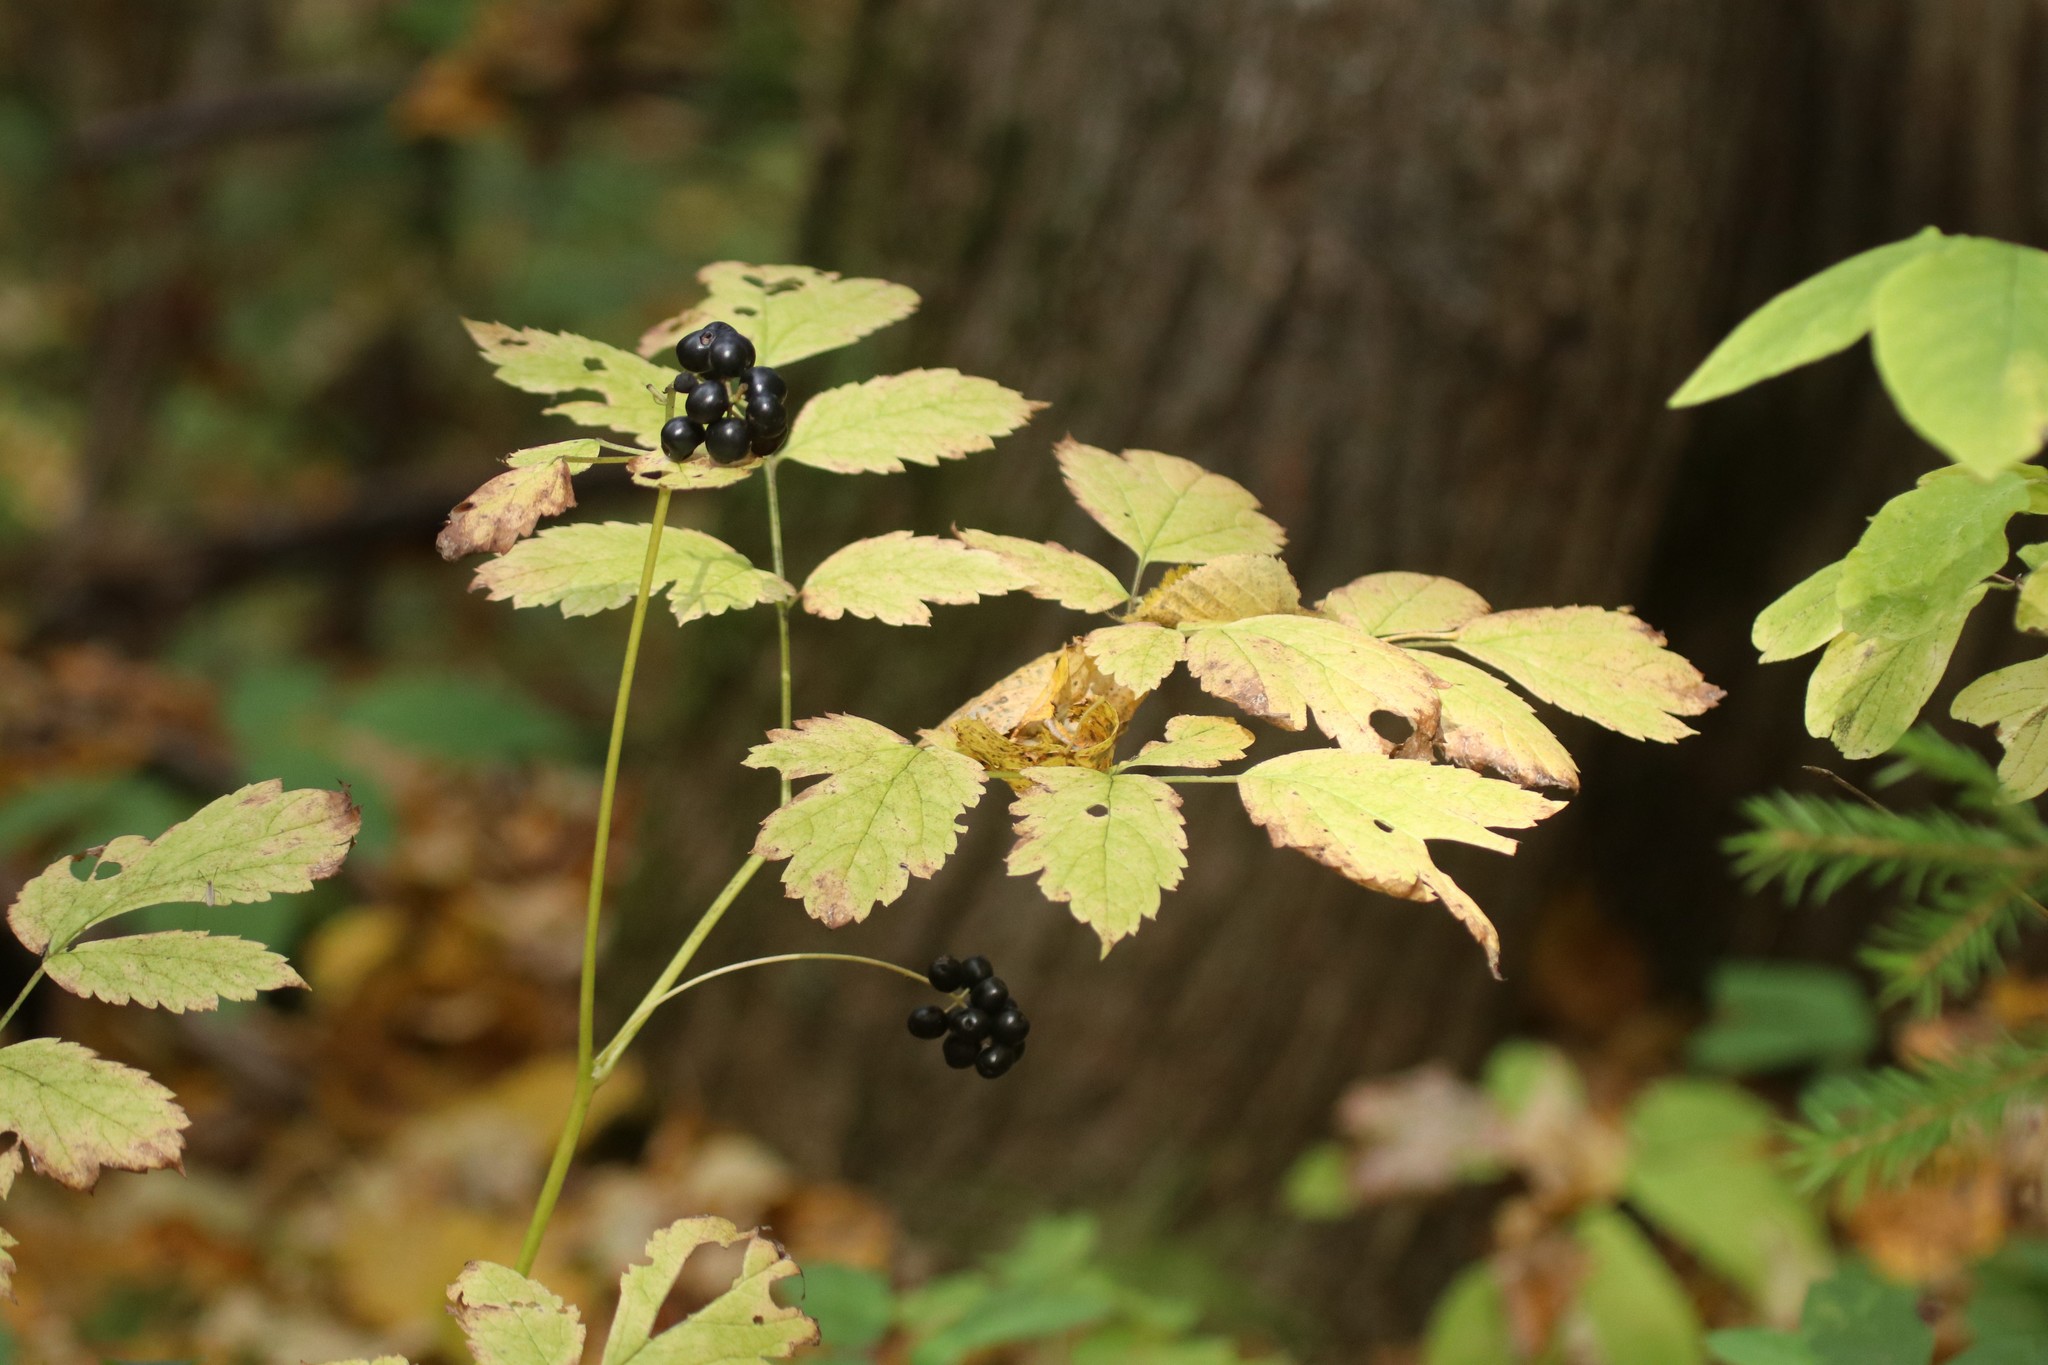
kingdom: Plantae
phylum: Tracheophyta
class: Magnoliopsida
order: Ranunculales
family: Ranunculaceae
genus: Actaea
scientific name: Actaea spicata
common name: Baneberry
